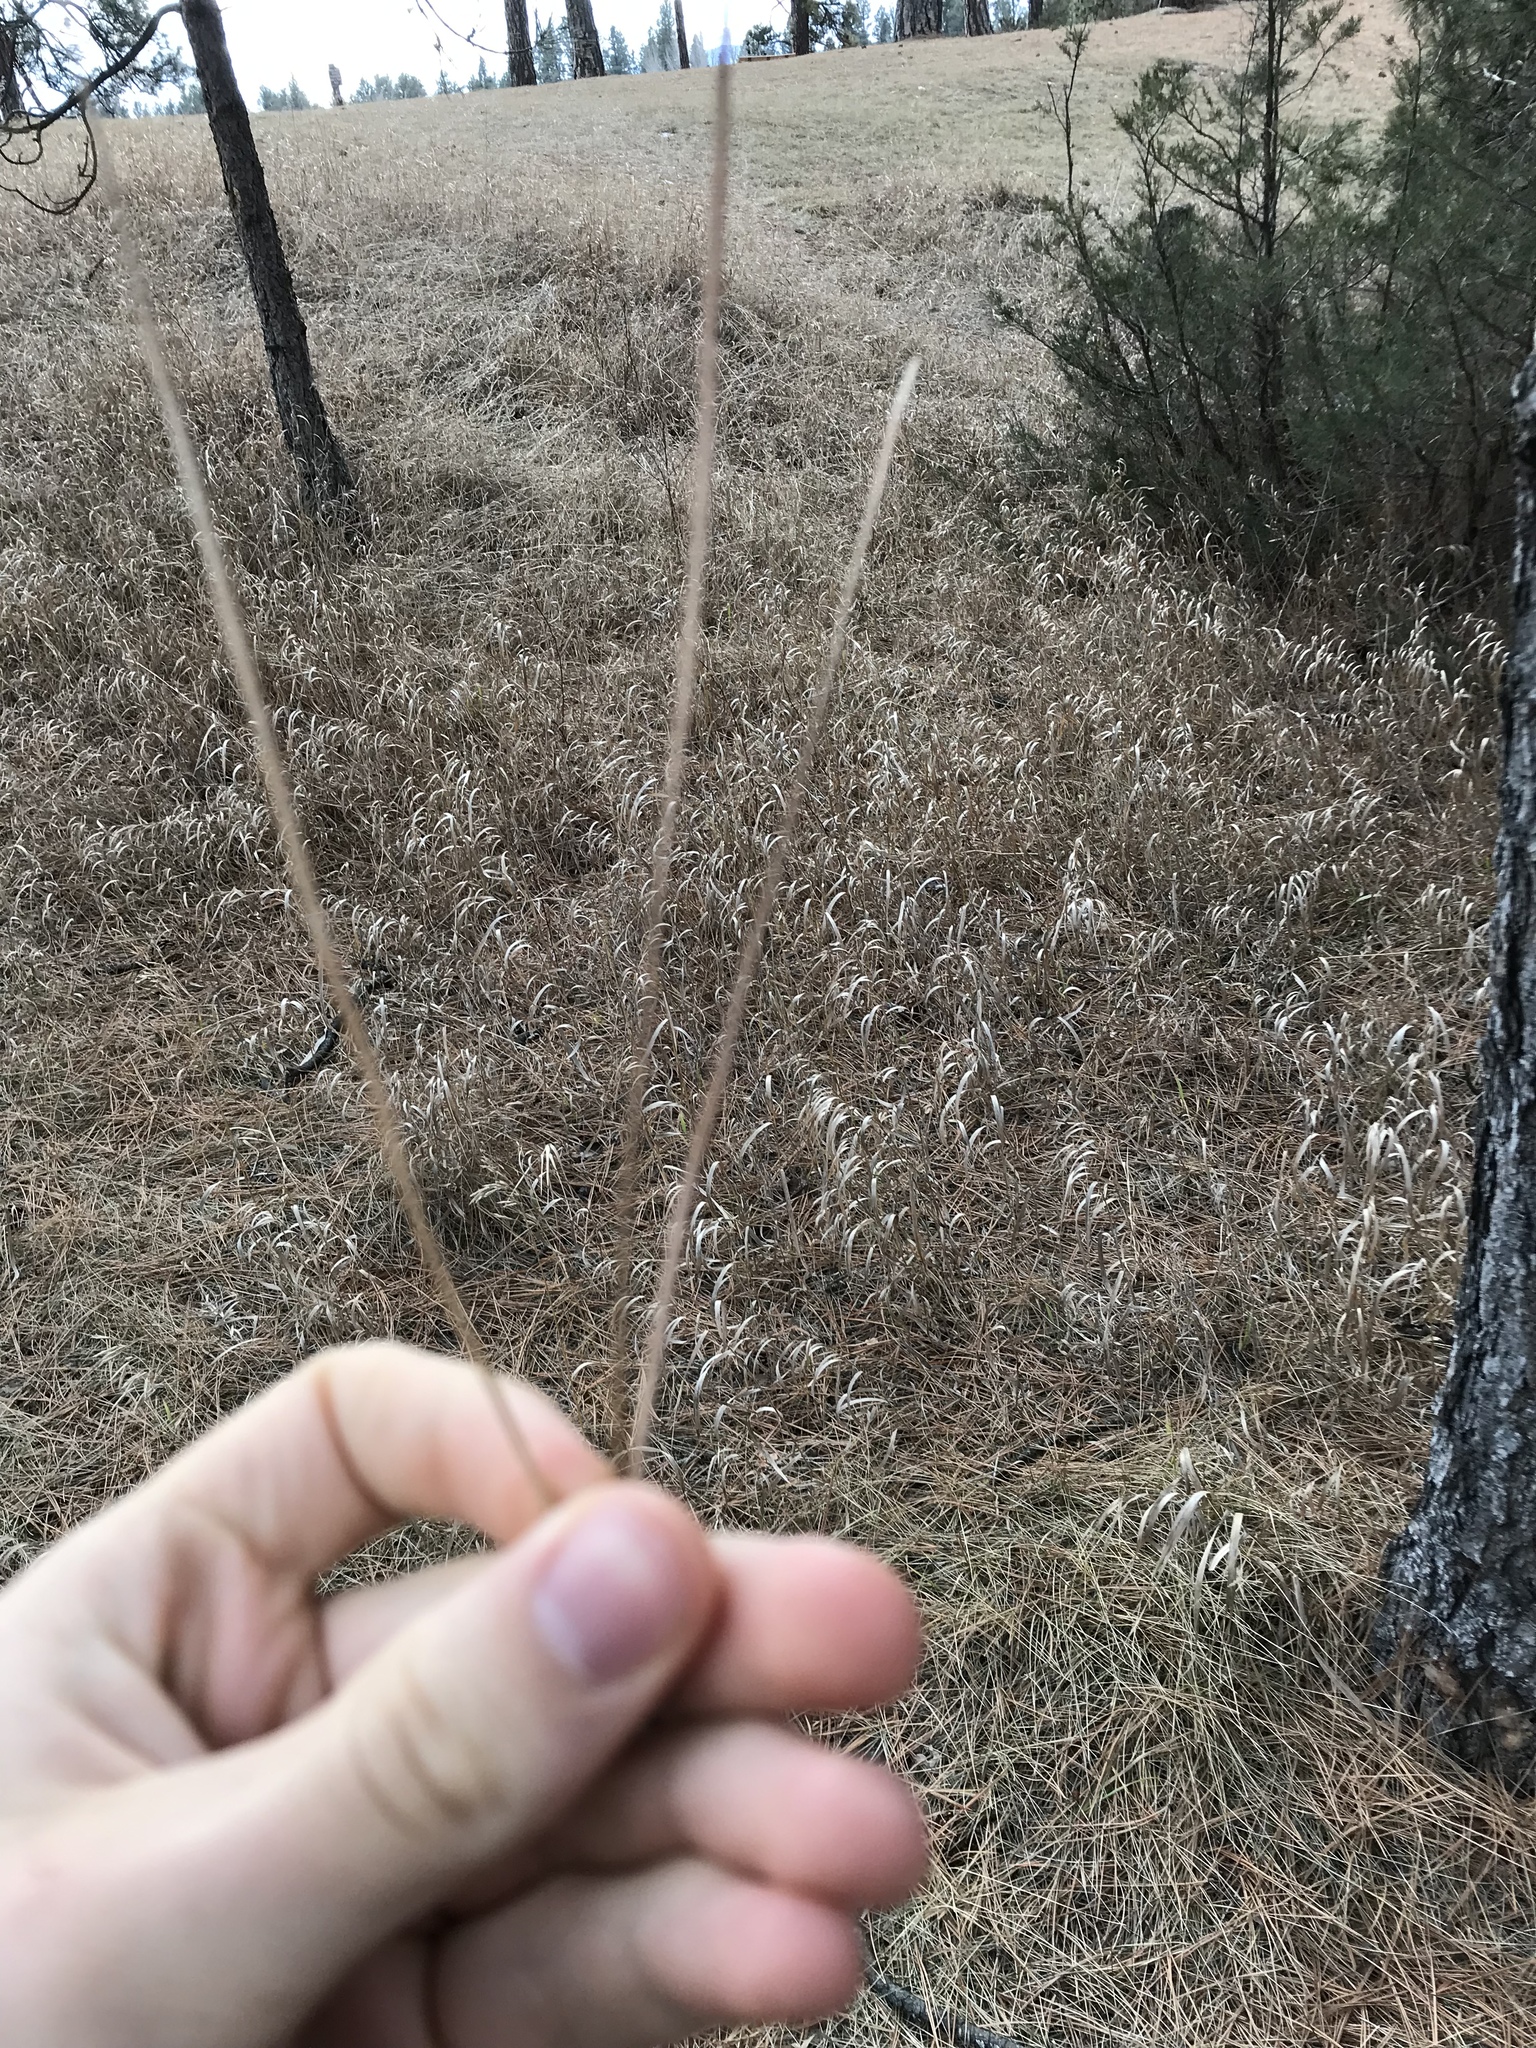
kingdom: Plantae
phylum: Tracheophyta
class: Pinopsida
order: Pinales
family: Pinaceae
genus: Pinus
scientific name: Pinus ponderosa
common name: Western yellow-pine
